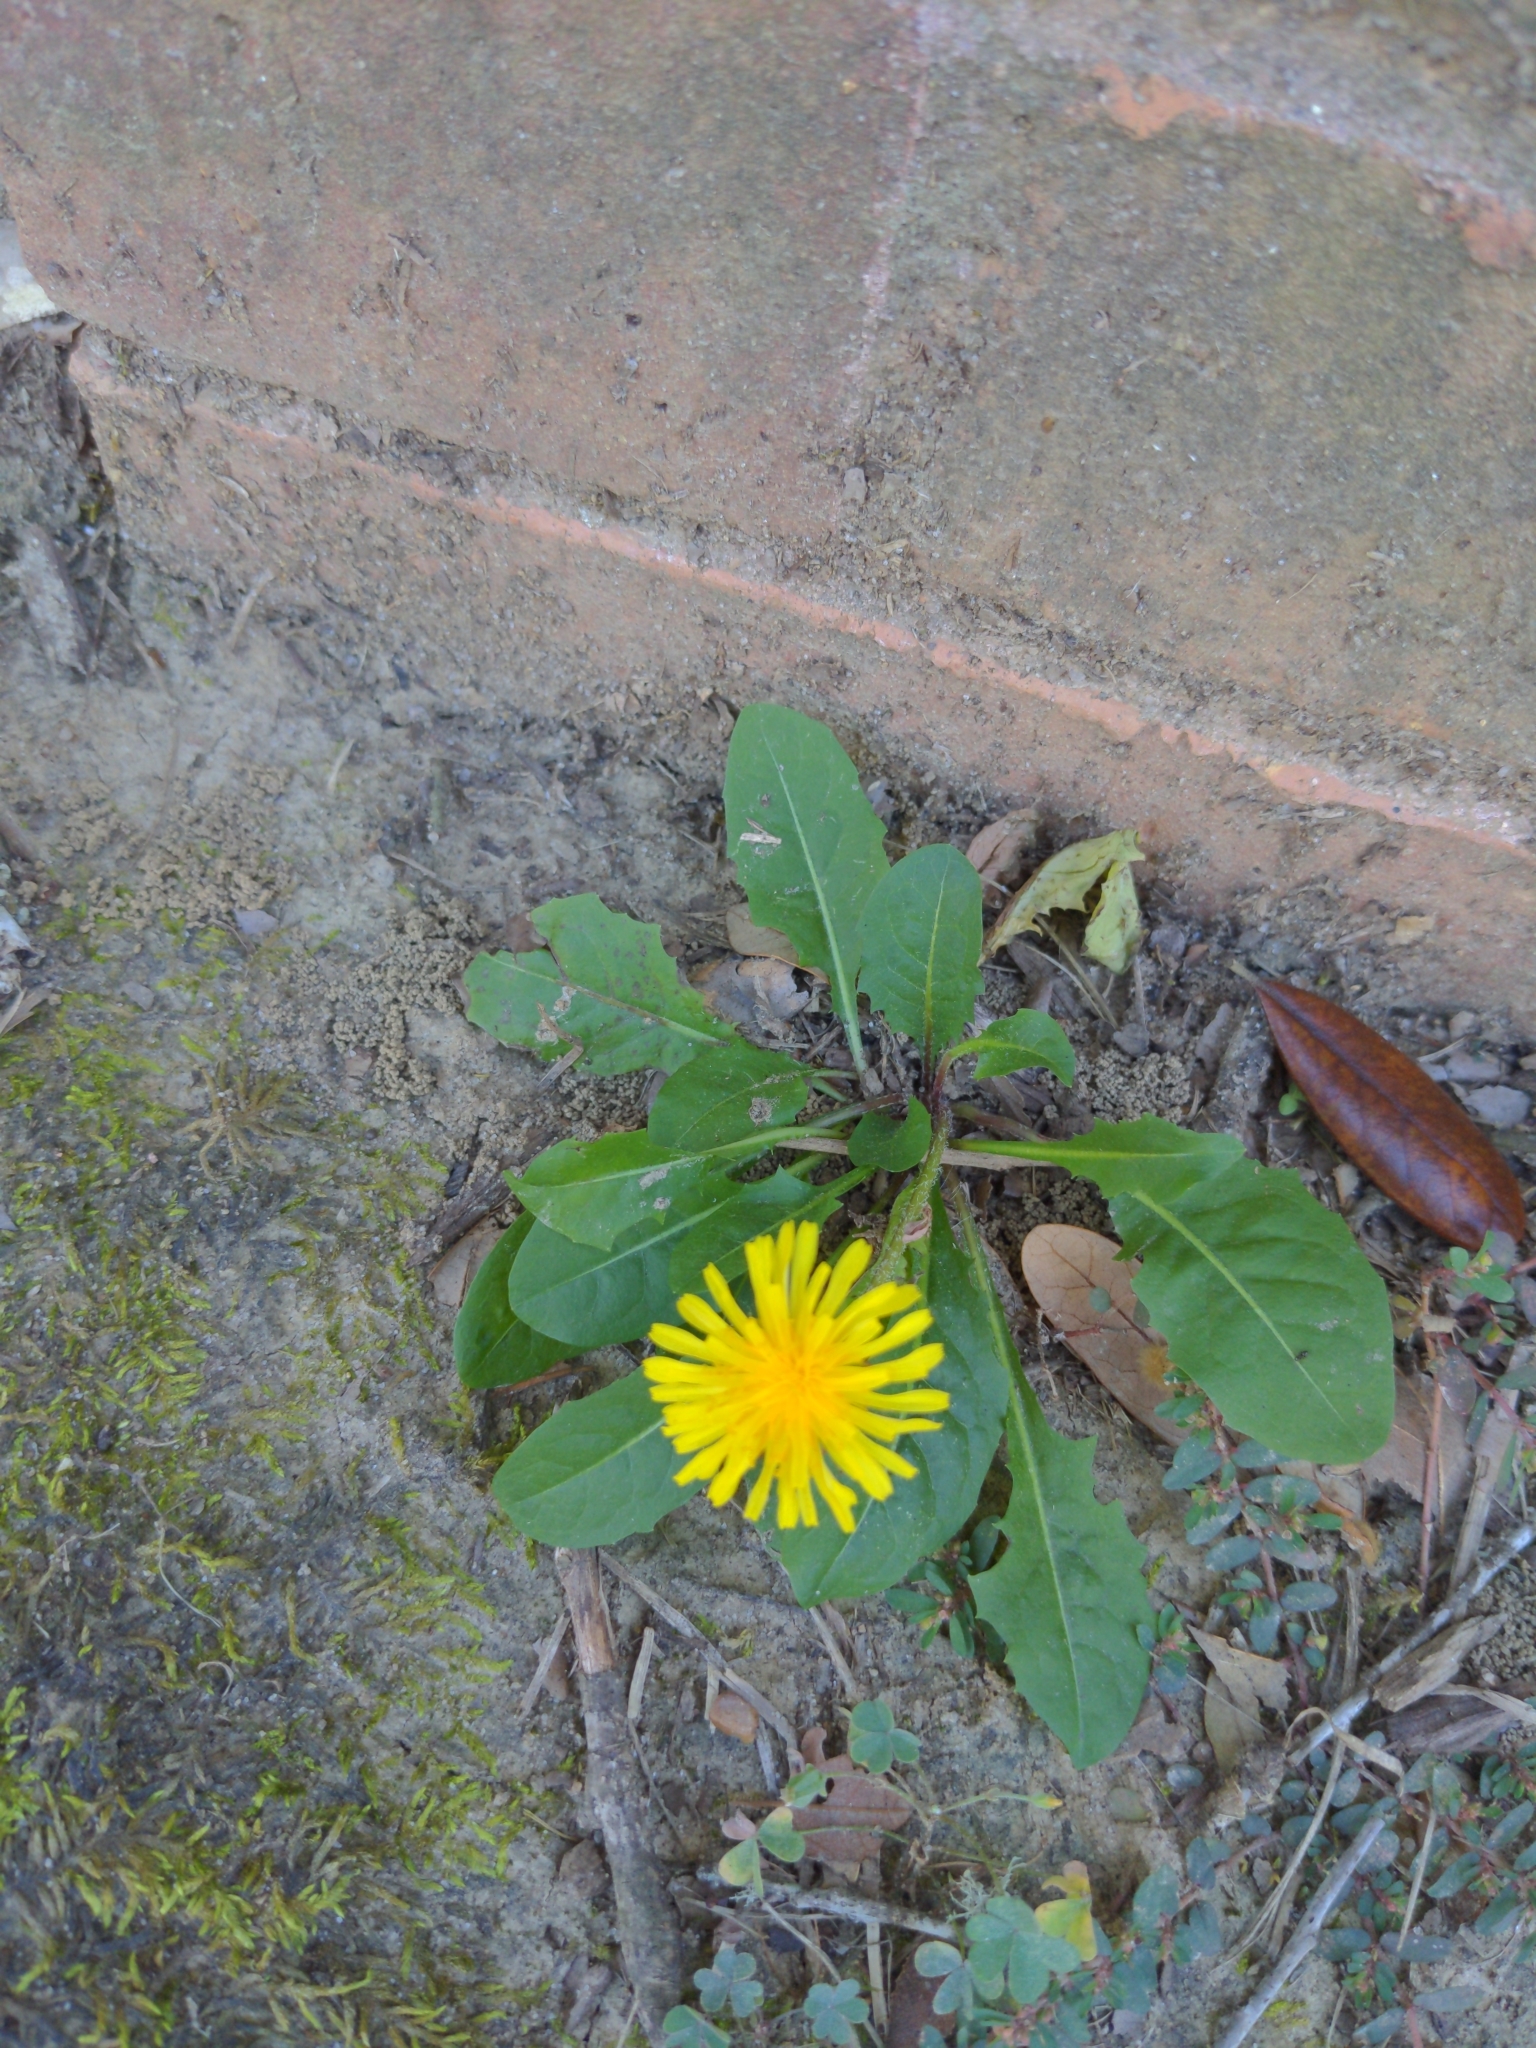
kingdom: Plantae
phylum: Tracheophyta
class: Magnoliopsida
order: Asterales
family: Asteraceae
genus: Taraxacum
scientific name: Taraxacum officinale
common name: Common dandelion
